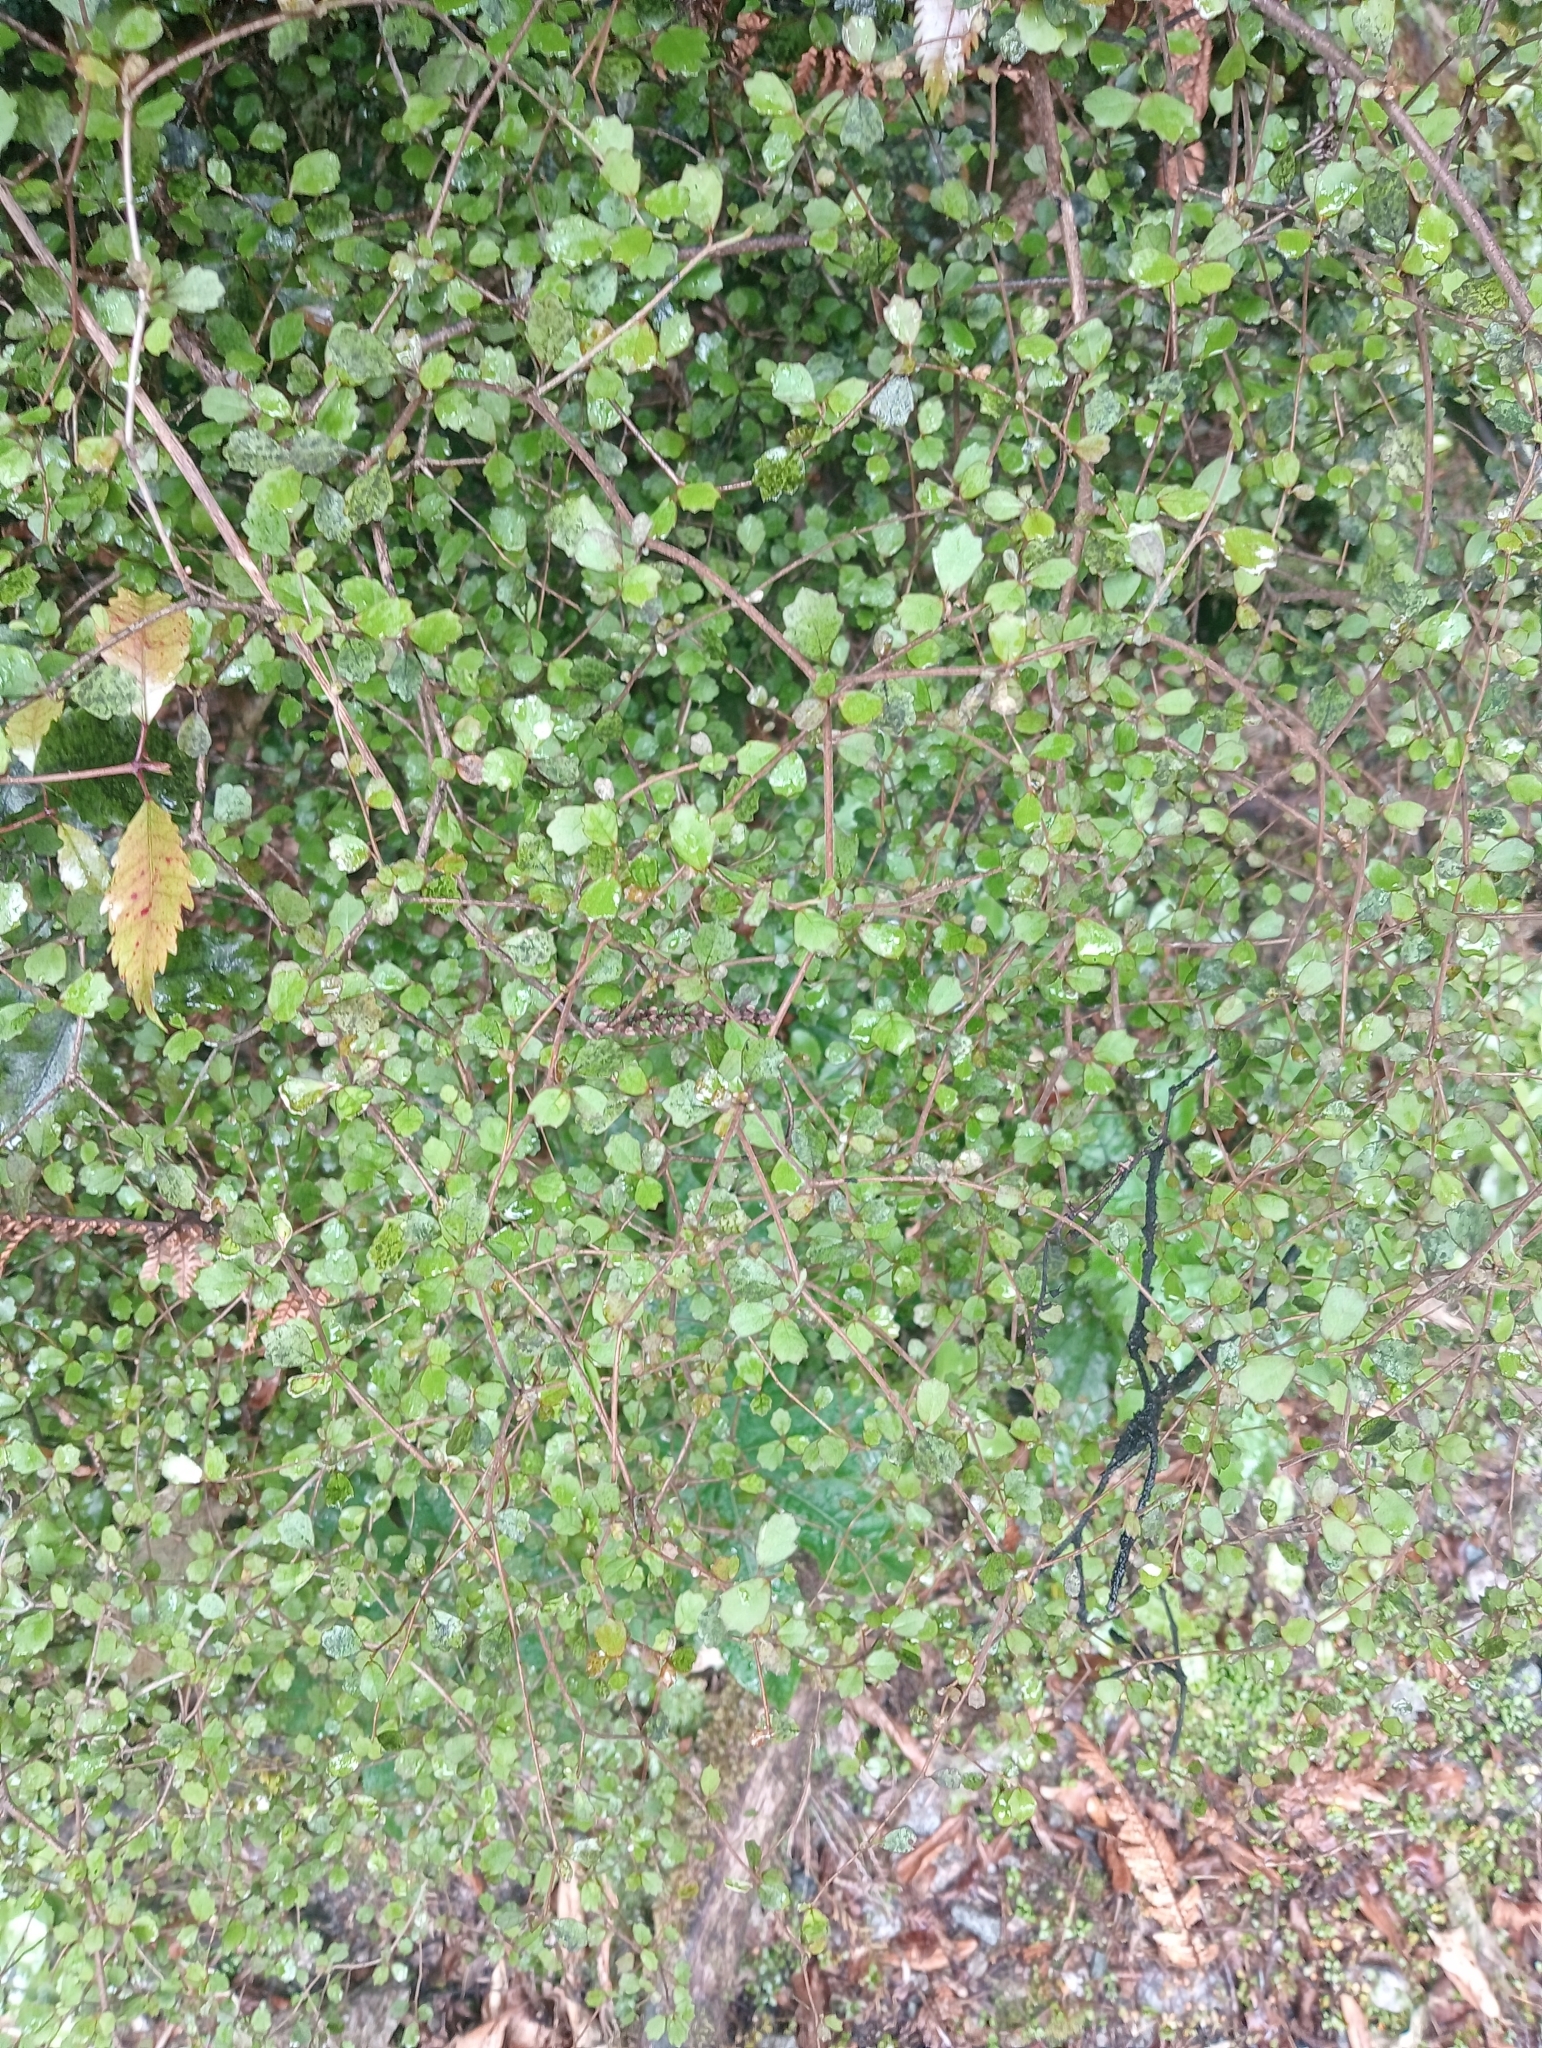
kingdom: Plantae
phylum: Tracheophyta
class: Magnoliopsida
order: Apiales
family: Pennantiaceae
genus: Pennantia
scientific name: Pennantia corymbosa
